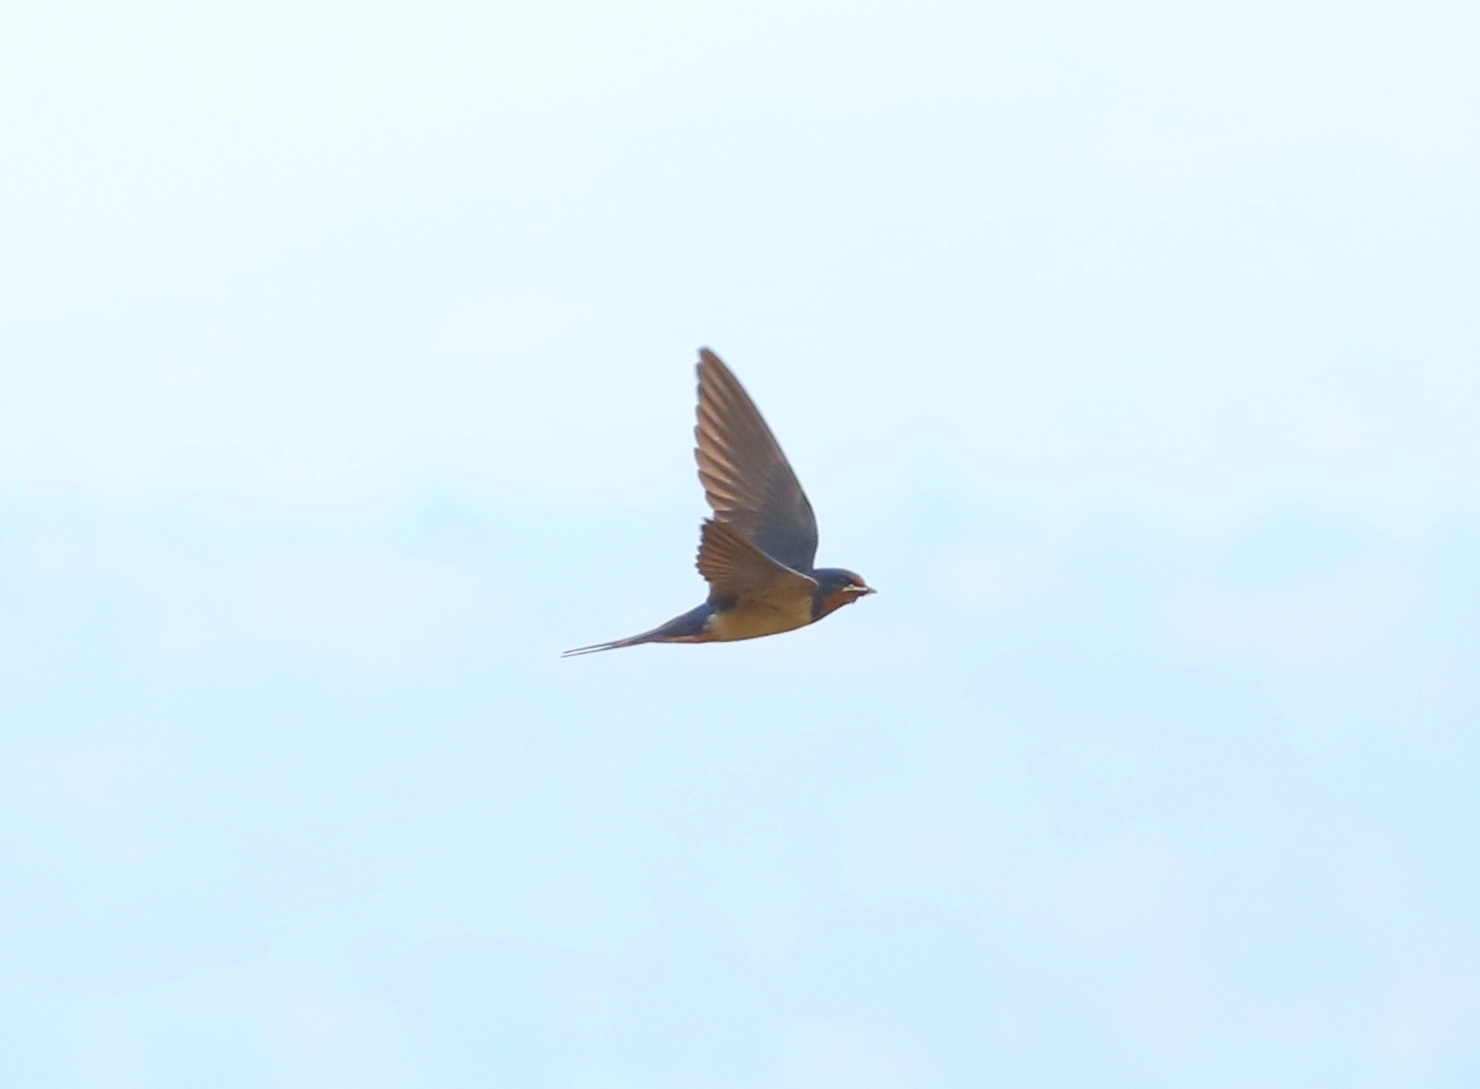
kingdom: Animalia
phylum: Chordata
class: Aves
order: Passeriformes
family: Hirundinidae
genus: Hirundo
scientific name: Hirundo rustica
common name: Barn swallow
